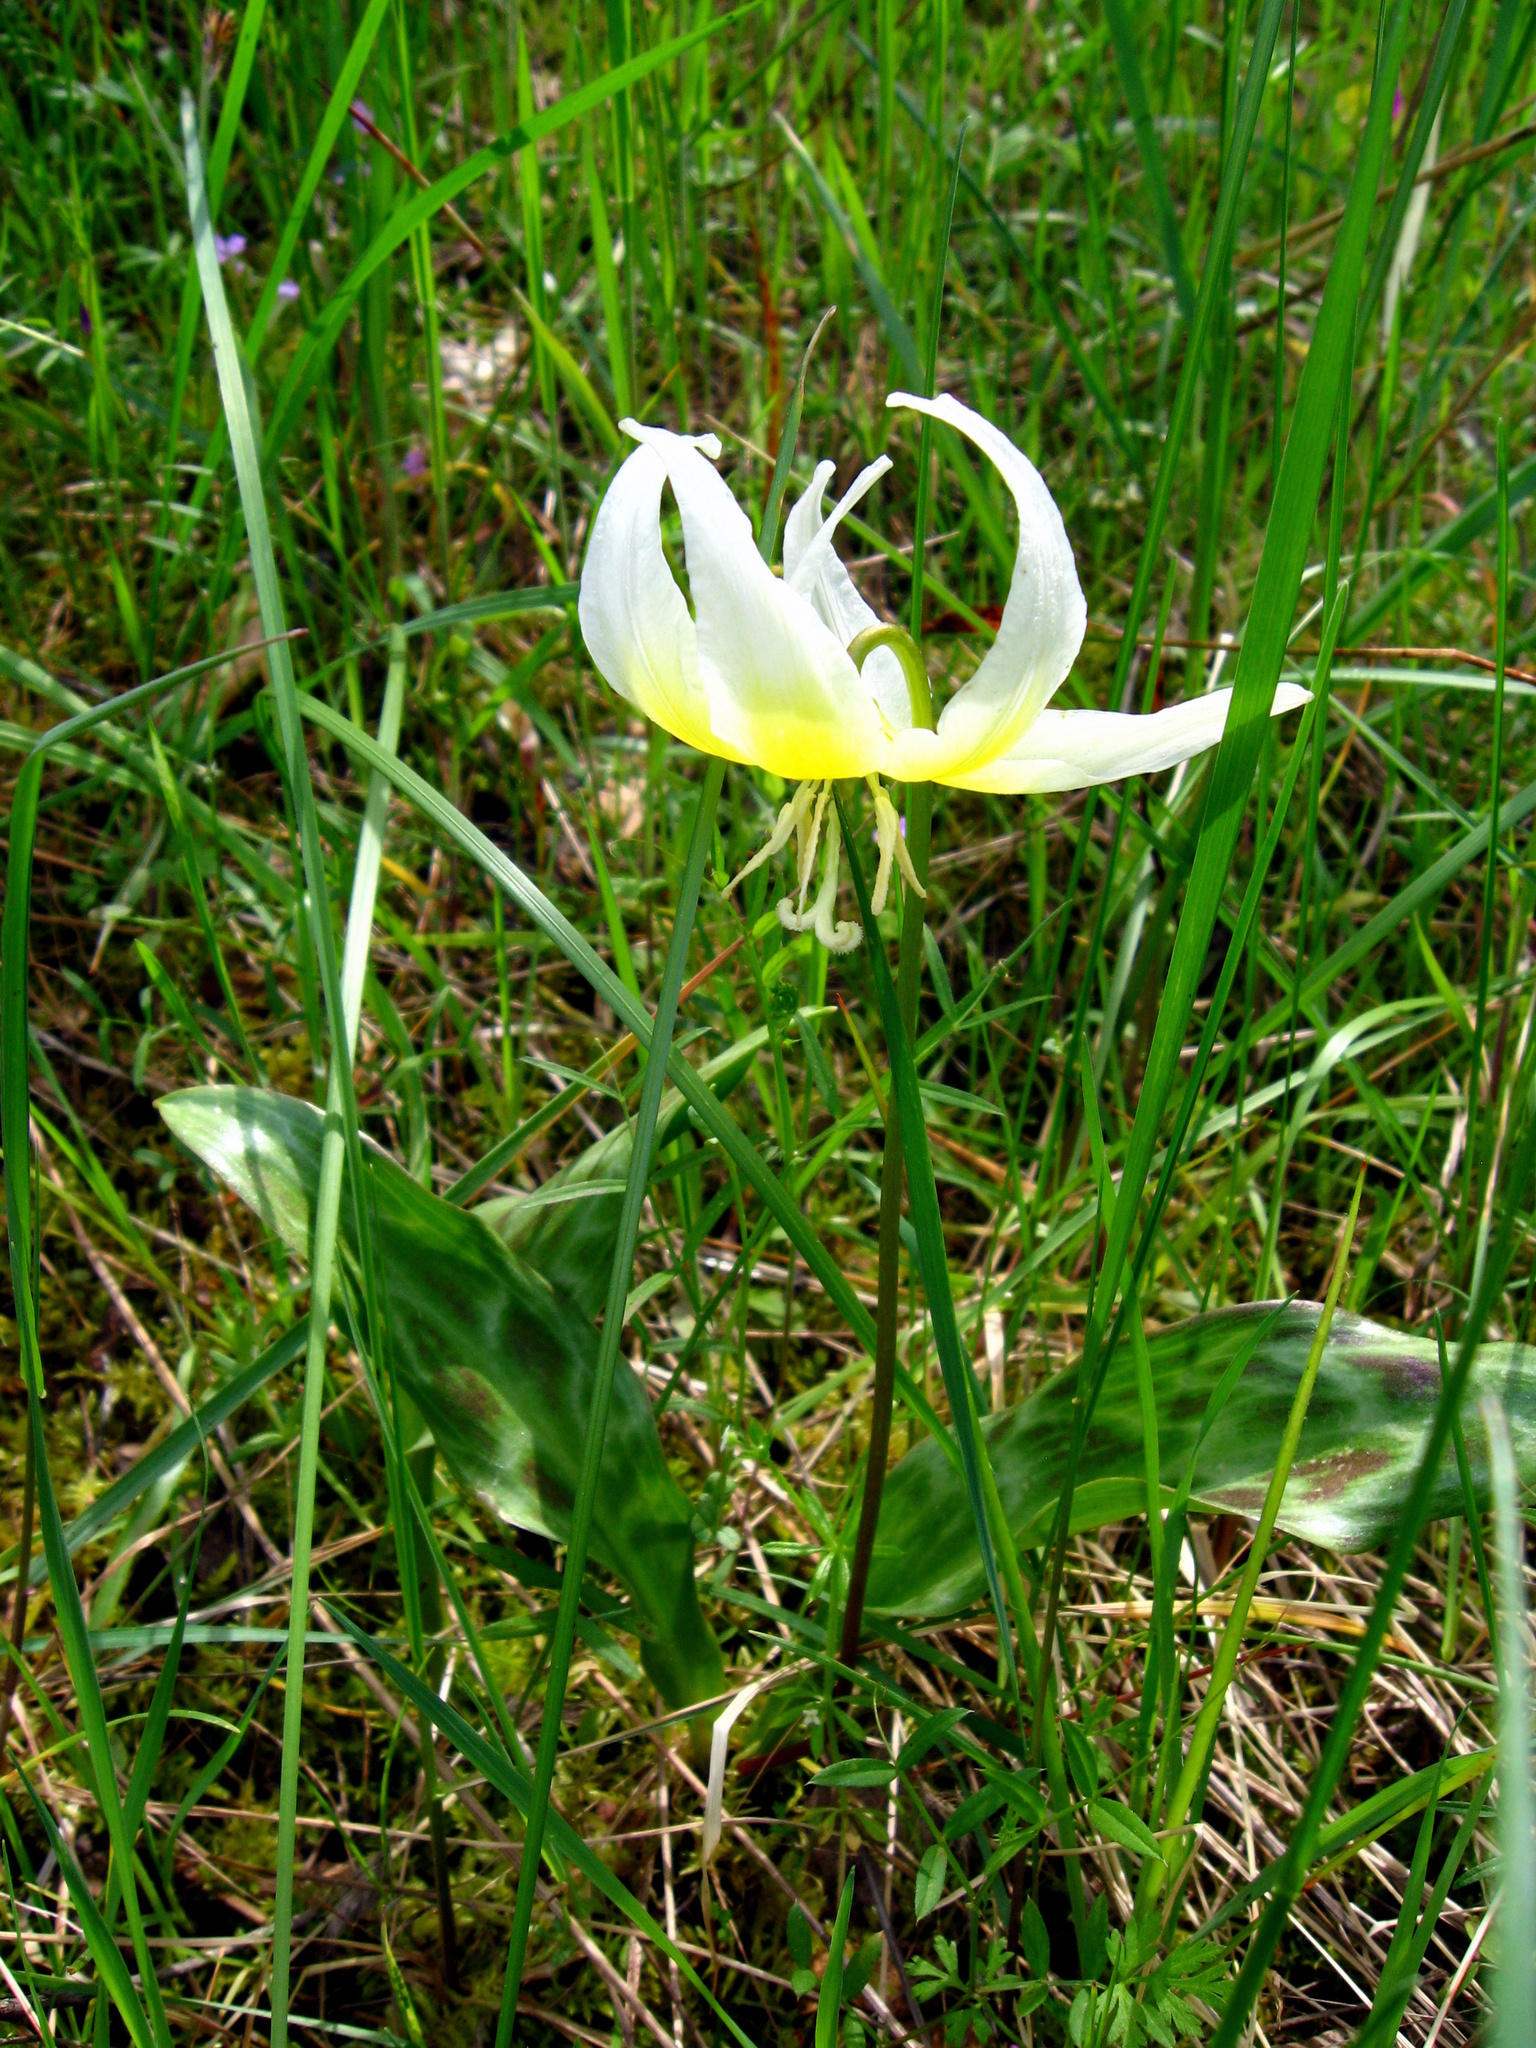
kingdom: Plantae
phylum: Tracheophyta
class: Liliopsida
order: Liliales
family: Liliaceae
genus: Erythronium
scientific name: Erythronium multiscapideum
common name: Sierra foothills fawn-lily
